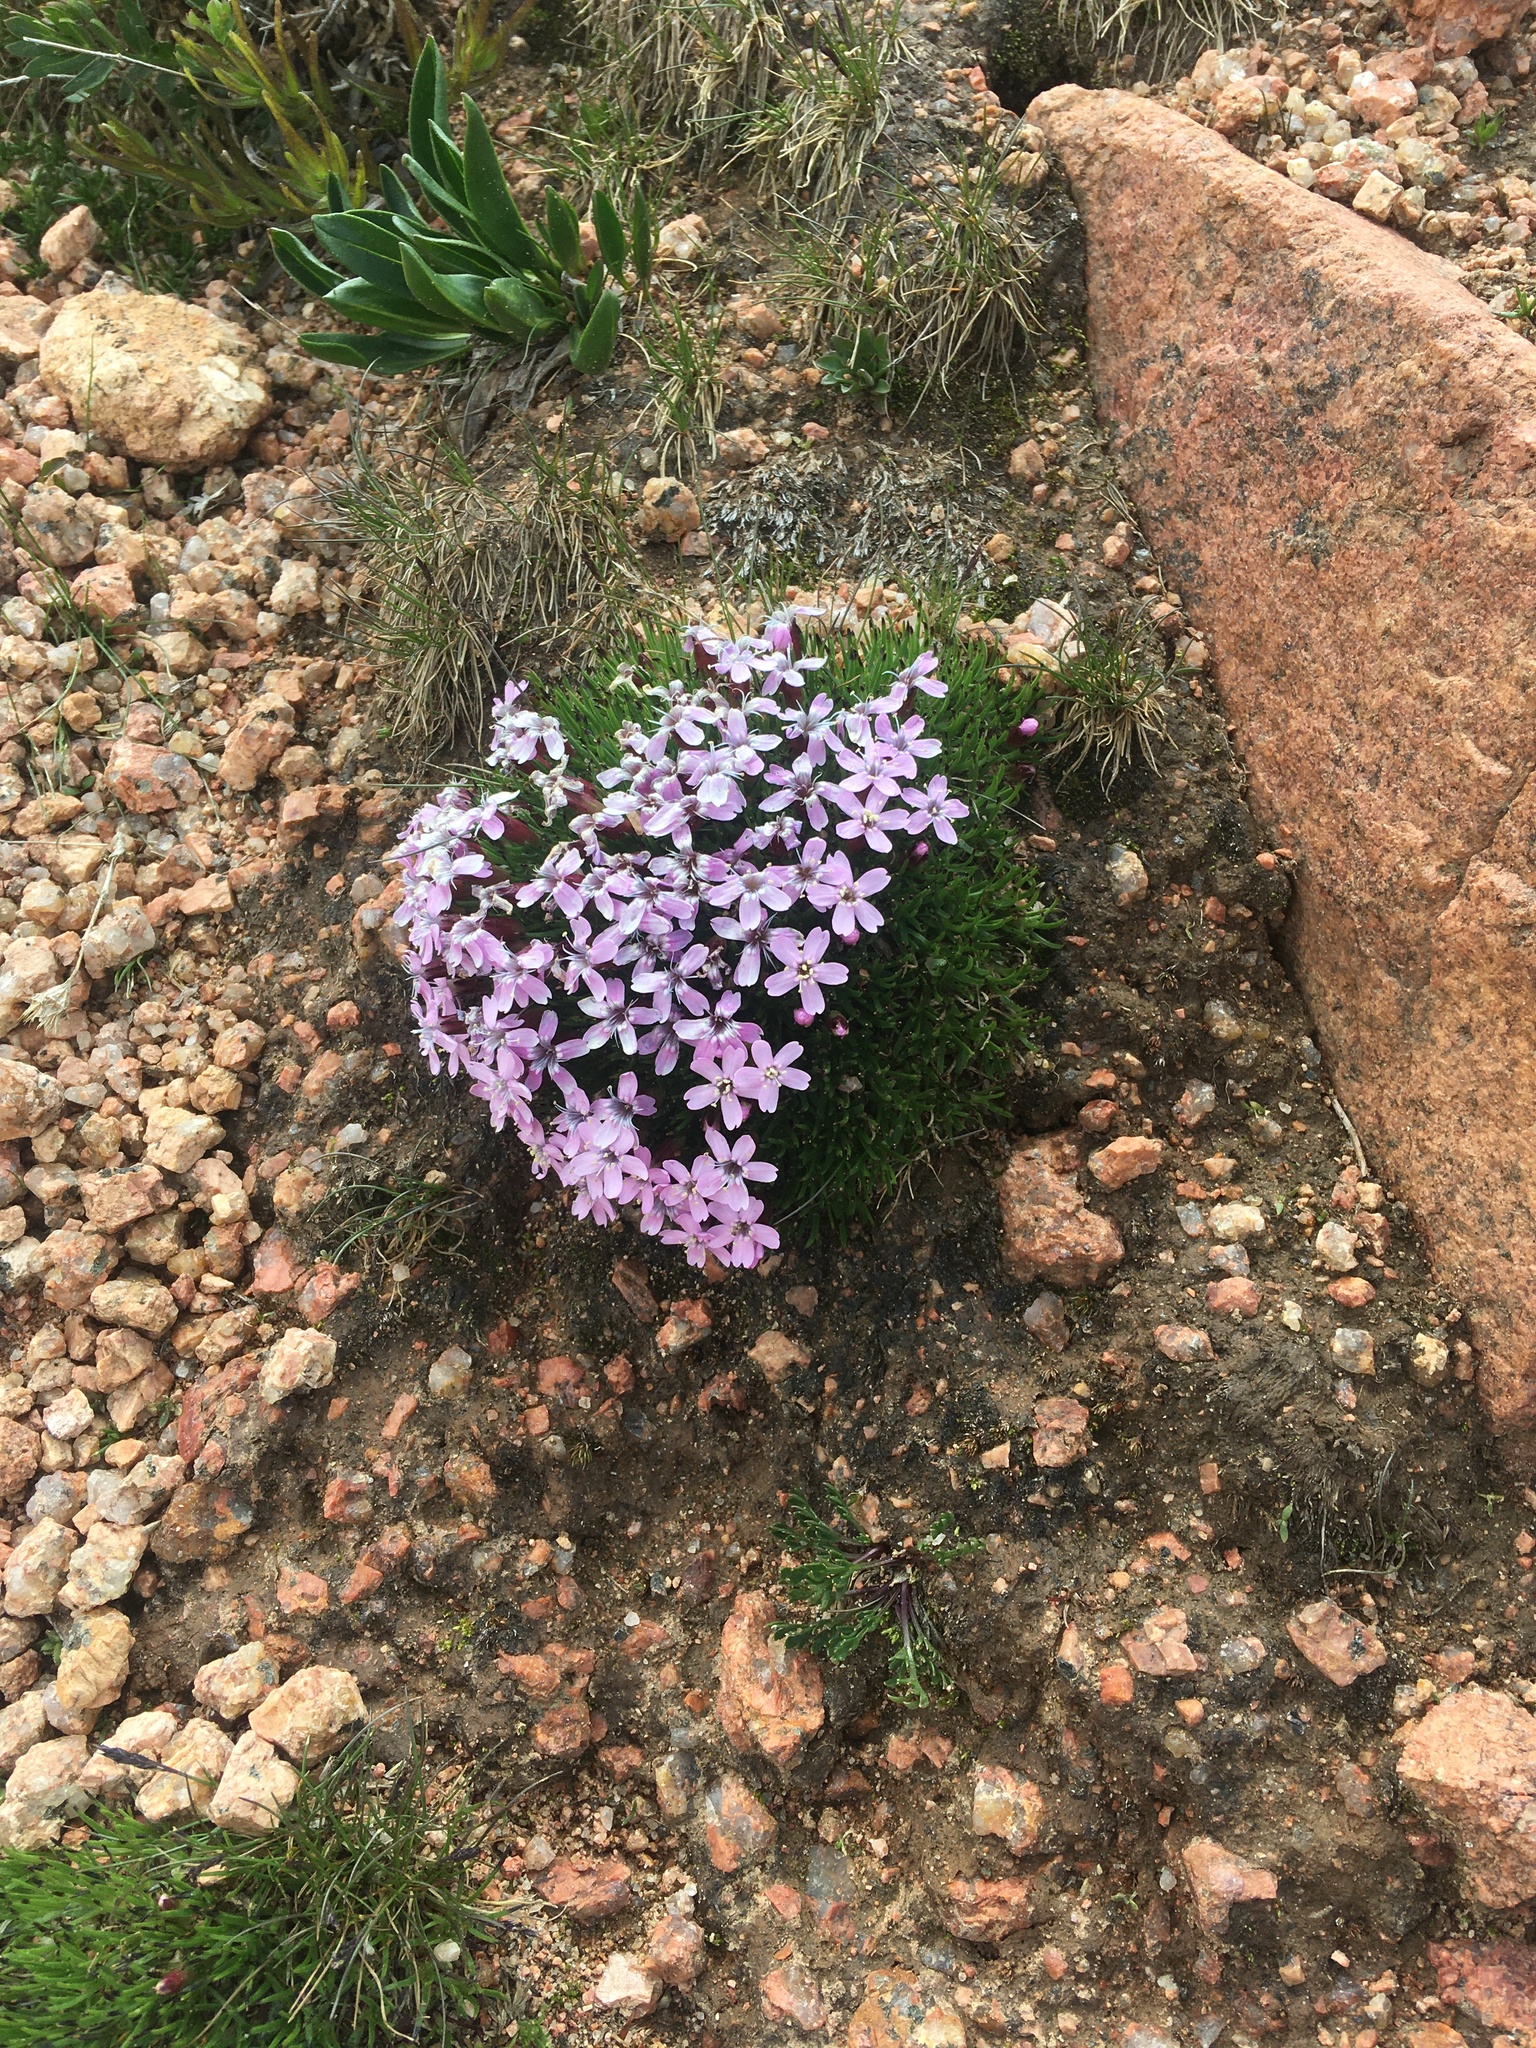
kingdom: Plantae
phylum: Tracheophyta
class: Magnoliopsida
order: Caryophyllales
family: Caryophyllaceae
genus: Silene
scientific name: Silene acaulis
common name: Moss campion
